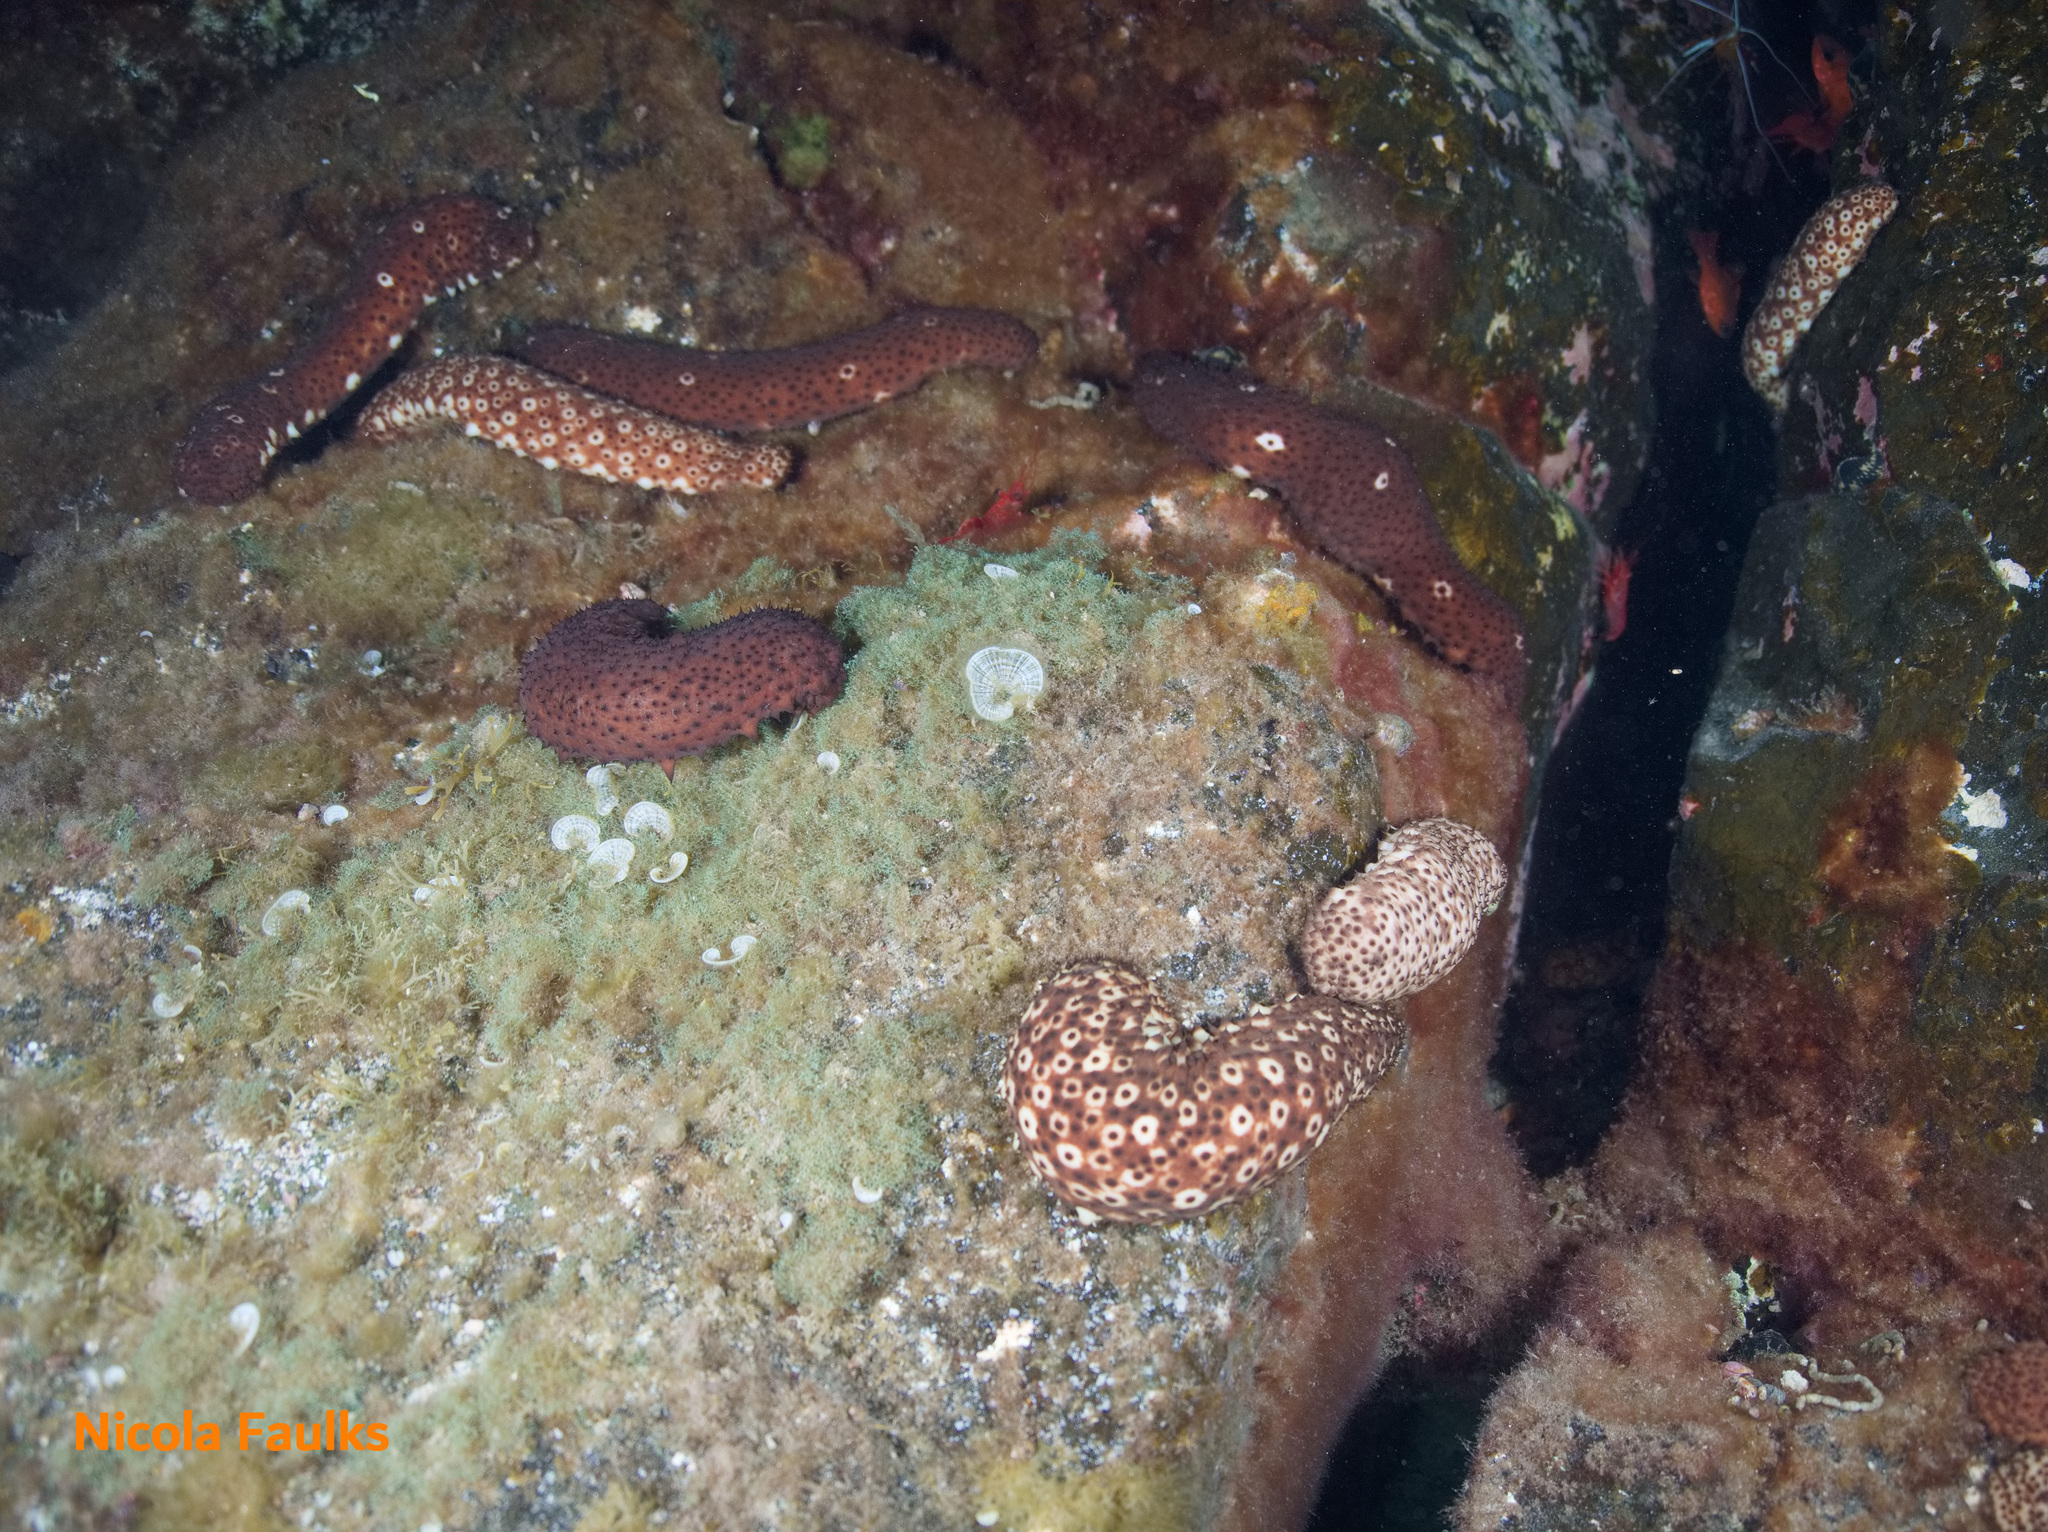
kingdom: Animalia
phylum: Echinodermata
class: Holothuroidea
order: Holothuriida
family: Holothuriidae
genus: Holothuria
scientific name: Holothuria sanctori
